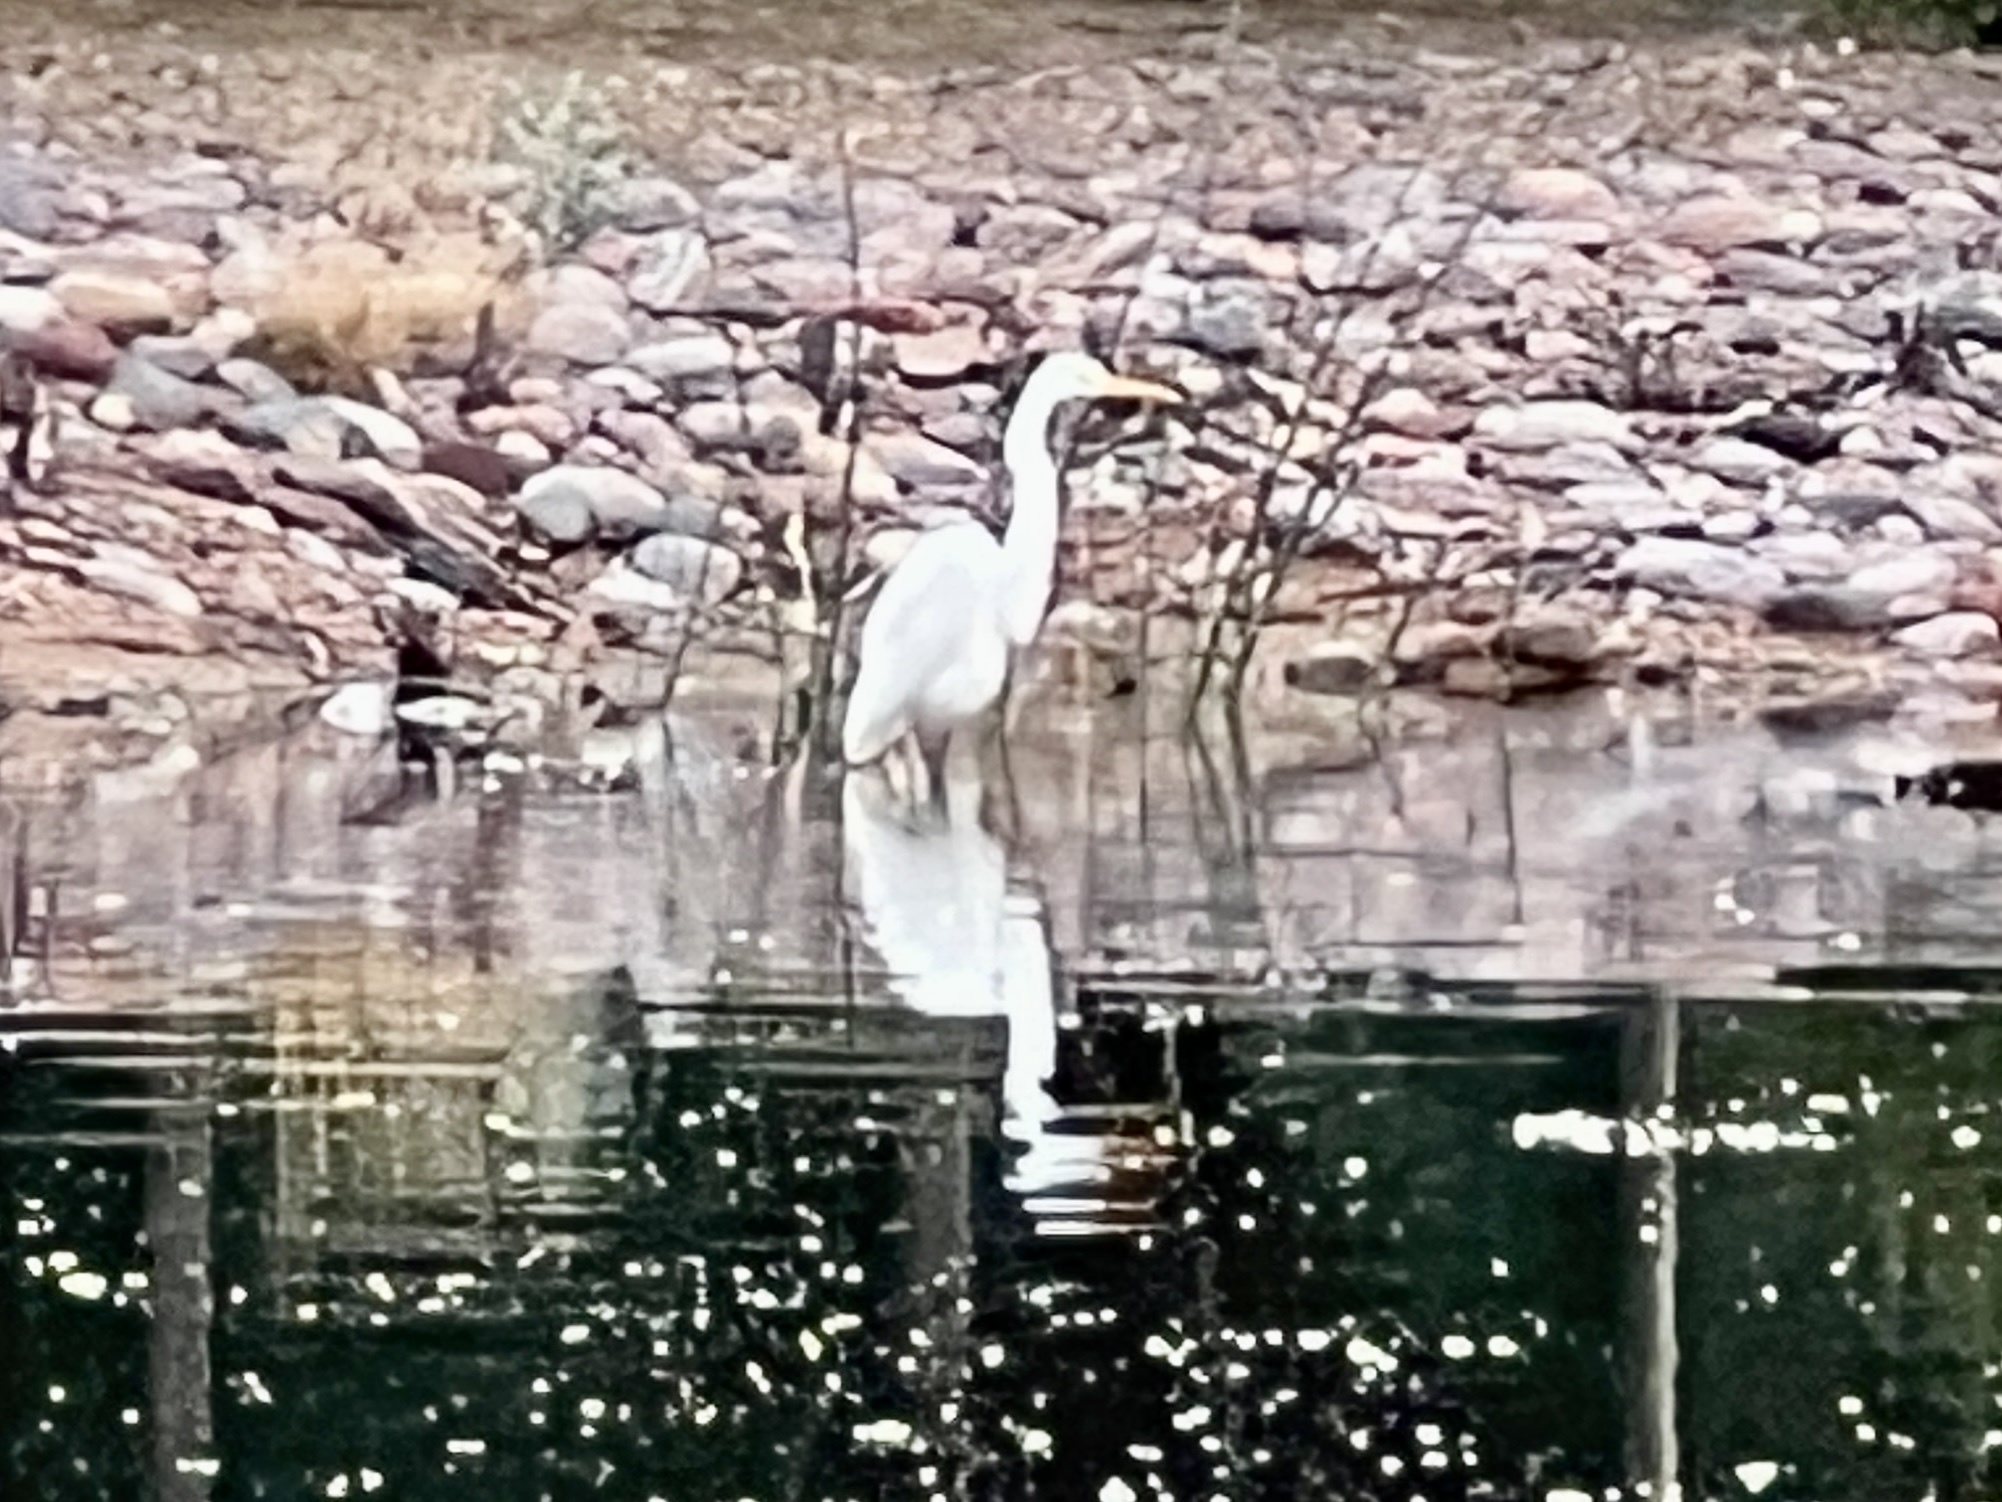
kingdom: Animalia
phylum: Chordata
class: Aves
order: Pelecaniformes
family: Ardeidae
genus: Ardea
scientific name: Ardea alba
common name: Great egret
